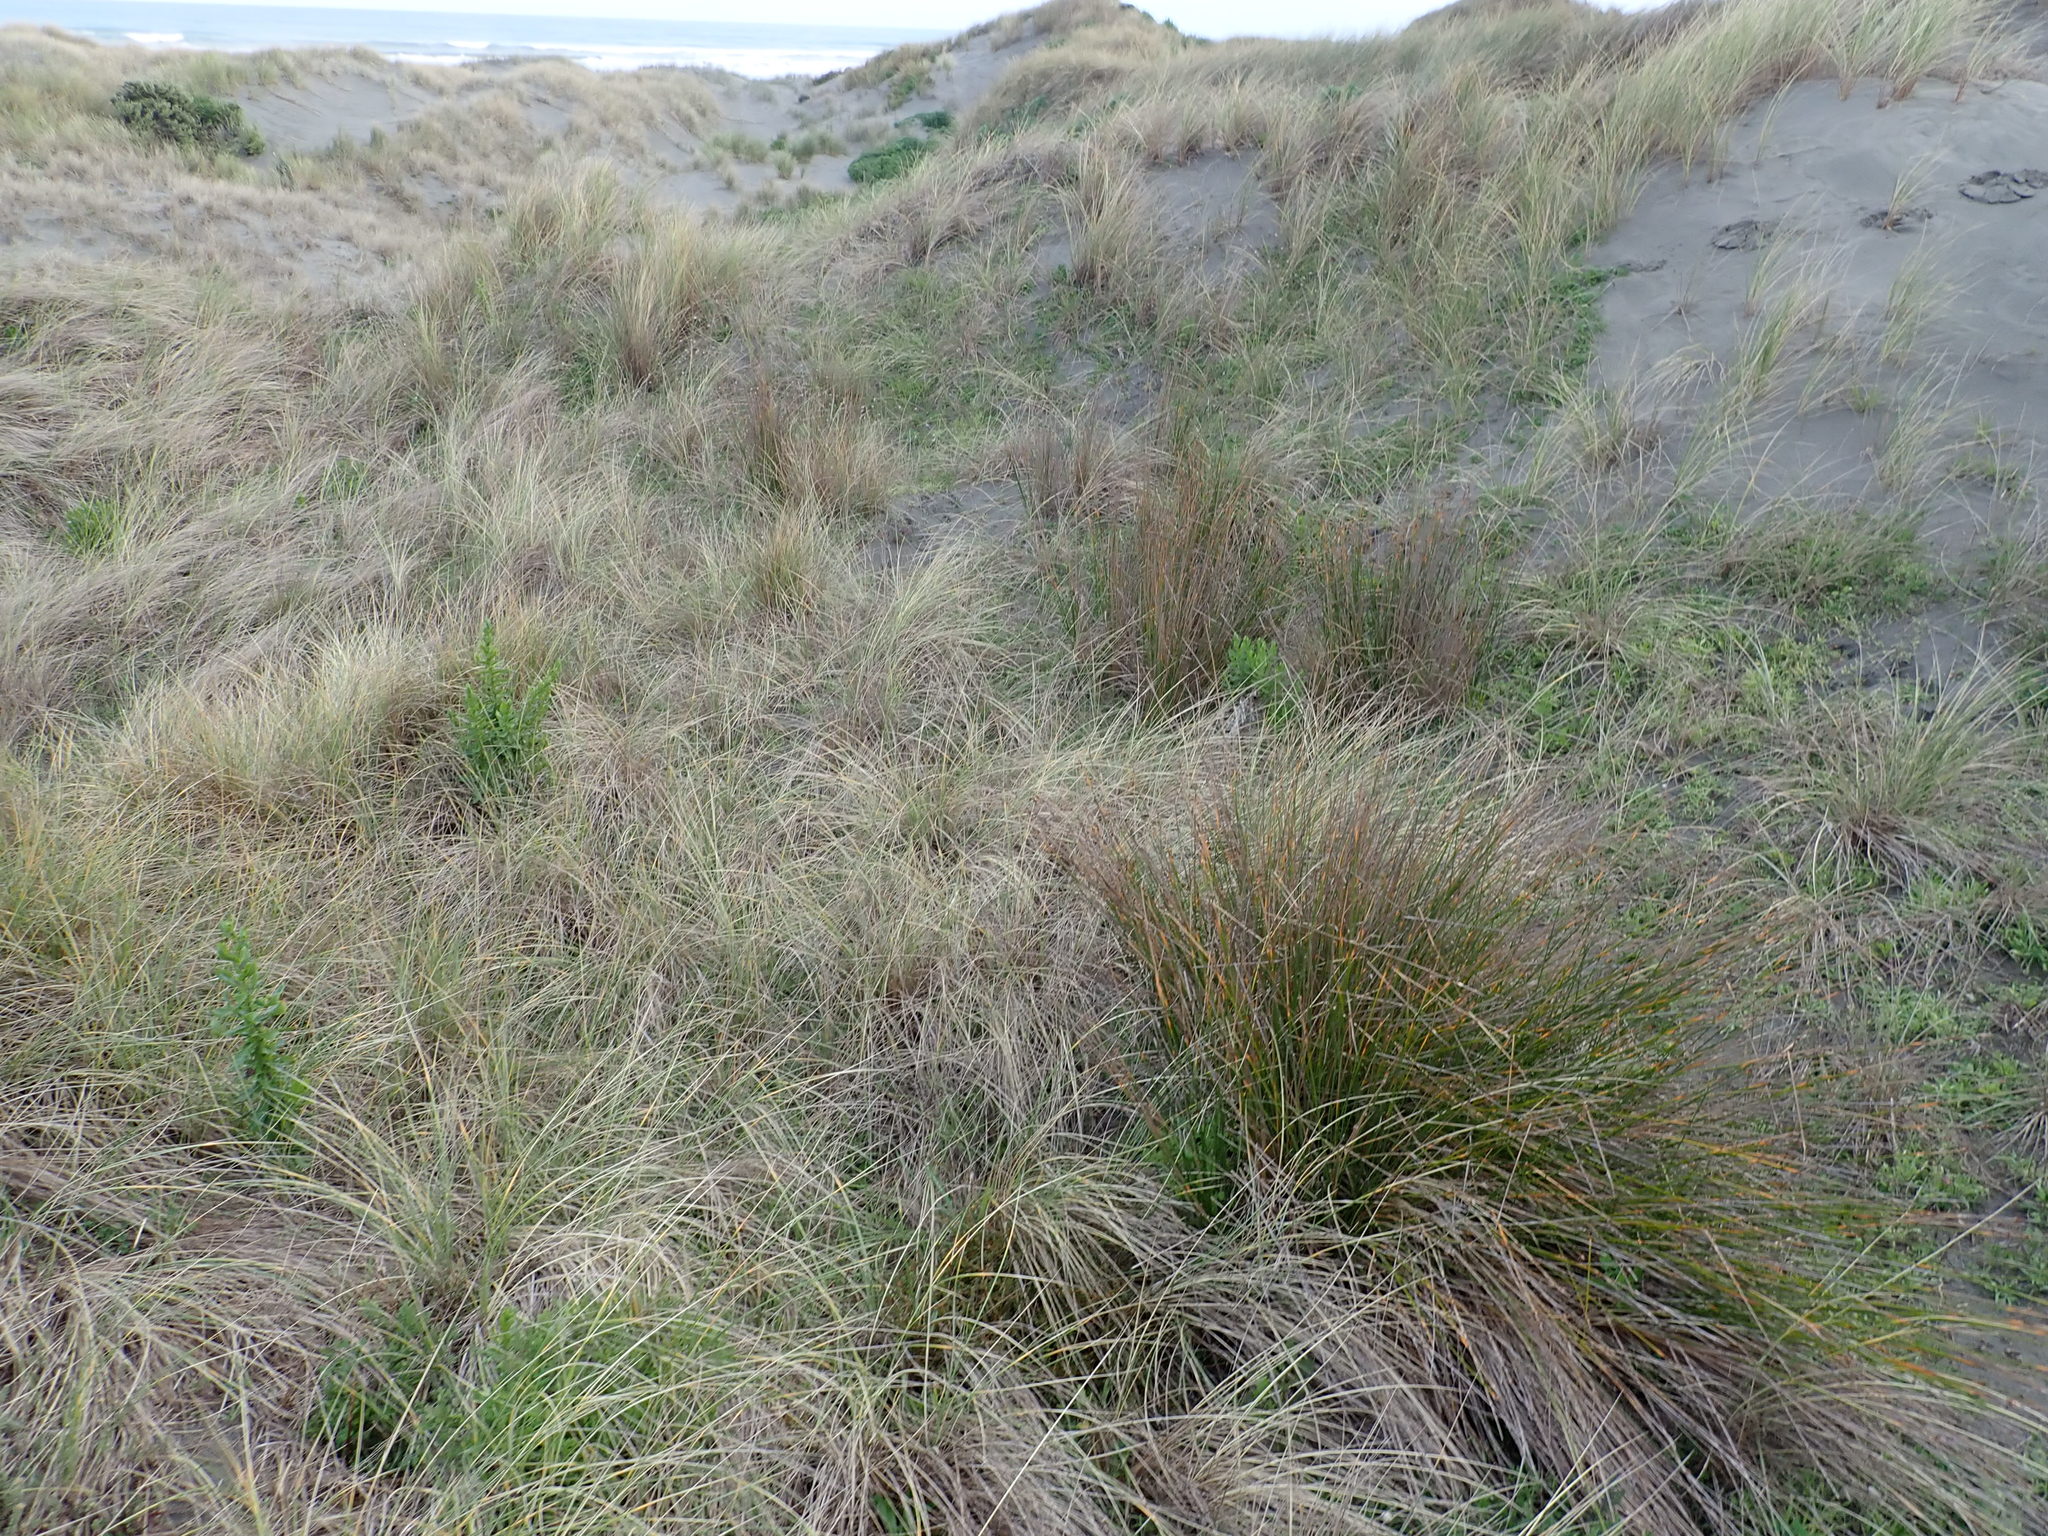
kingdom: Plantae
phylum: Tracheophyta
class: Liliopsida
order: Poales
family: Cyperaceae
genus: Ficinia
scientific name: Ficinia nodosa
